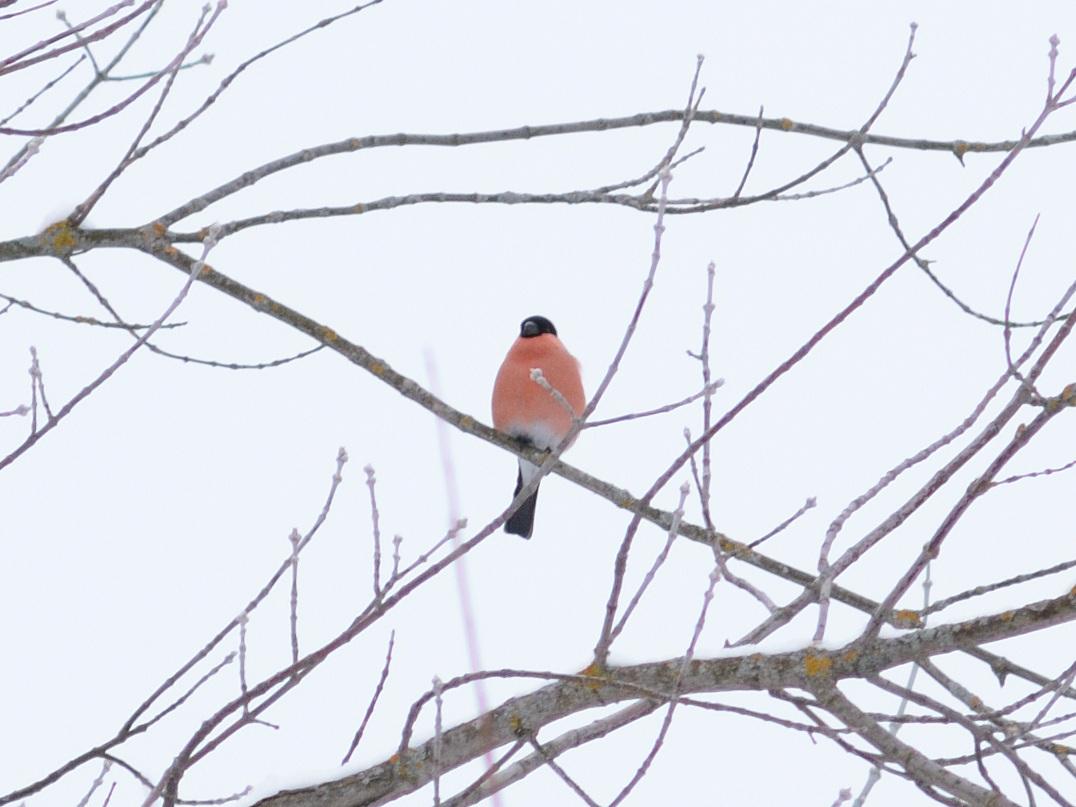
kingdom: Animalia
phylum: Chordata
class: Aves
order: Passeriformes
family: Fringillidae
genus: Pyrrhula
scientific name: Pyrrhula pyrrhula
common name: Eurasian bullfinch
